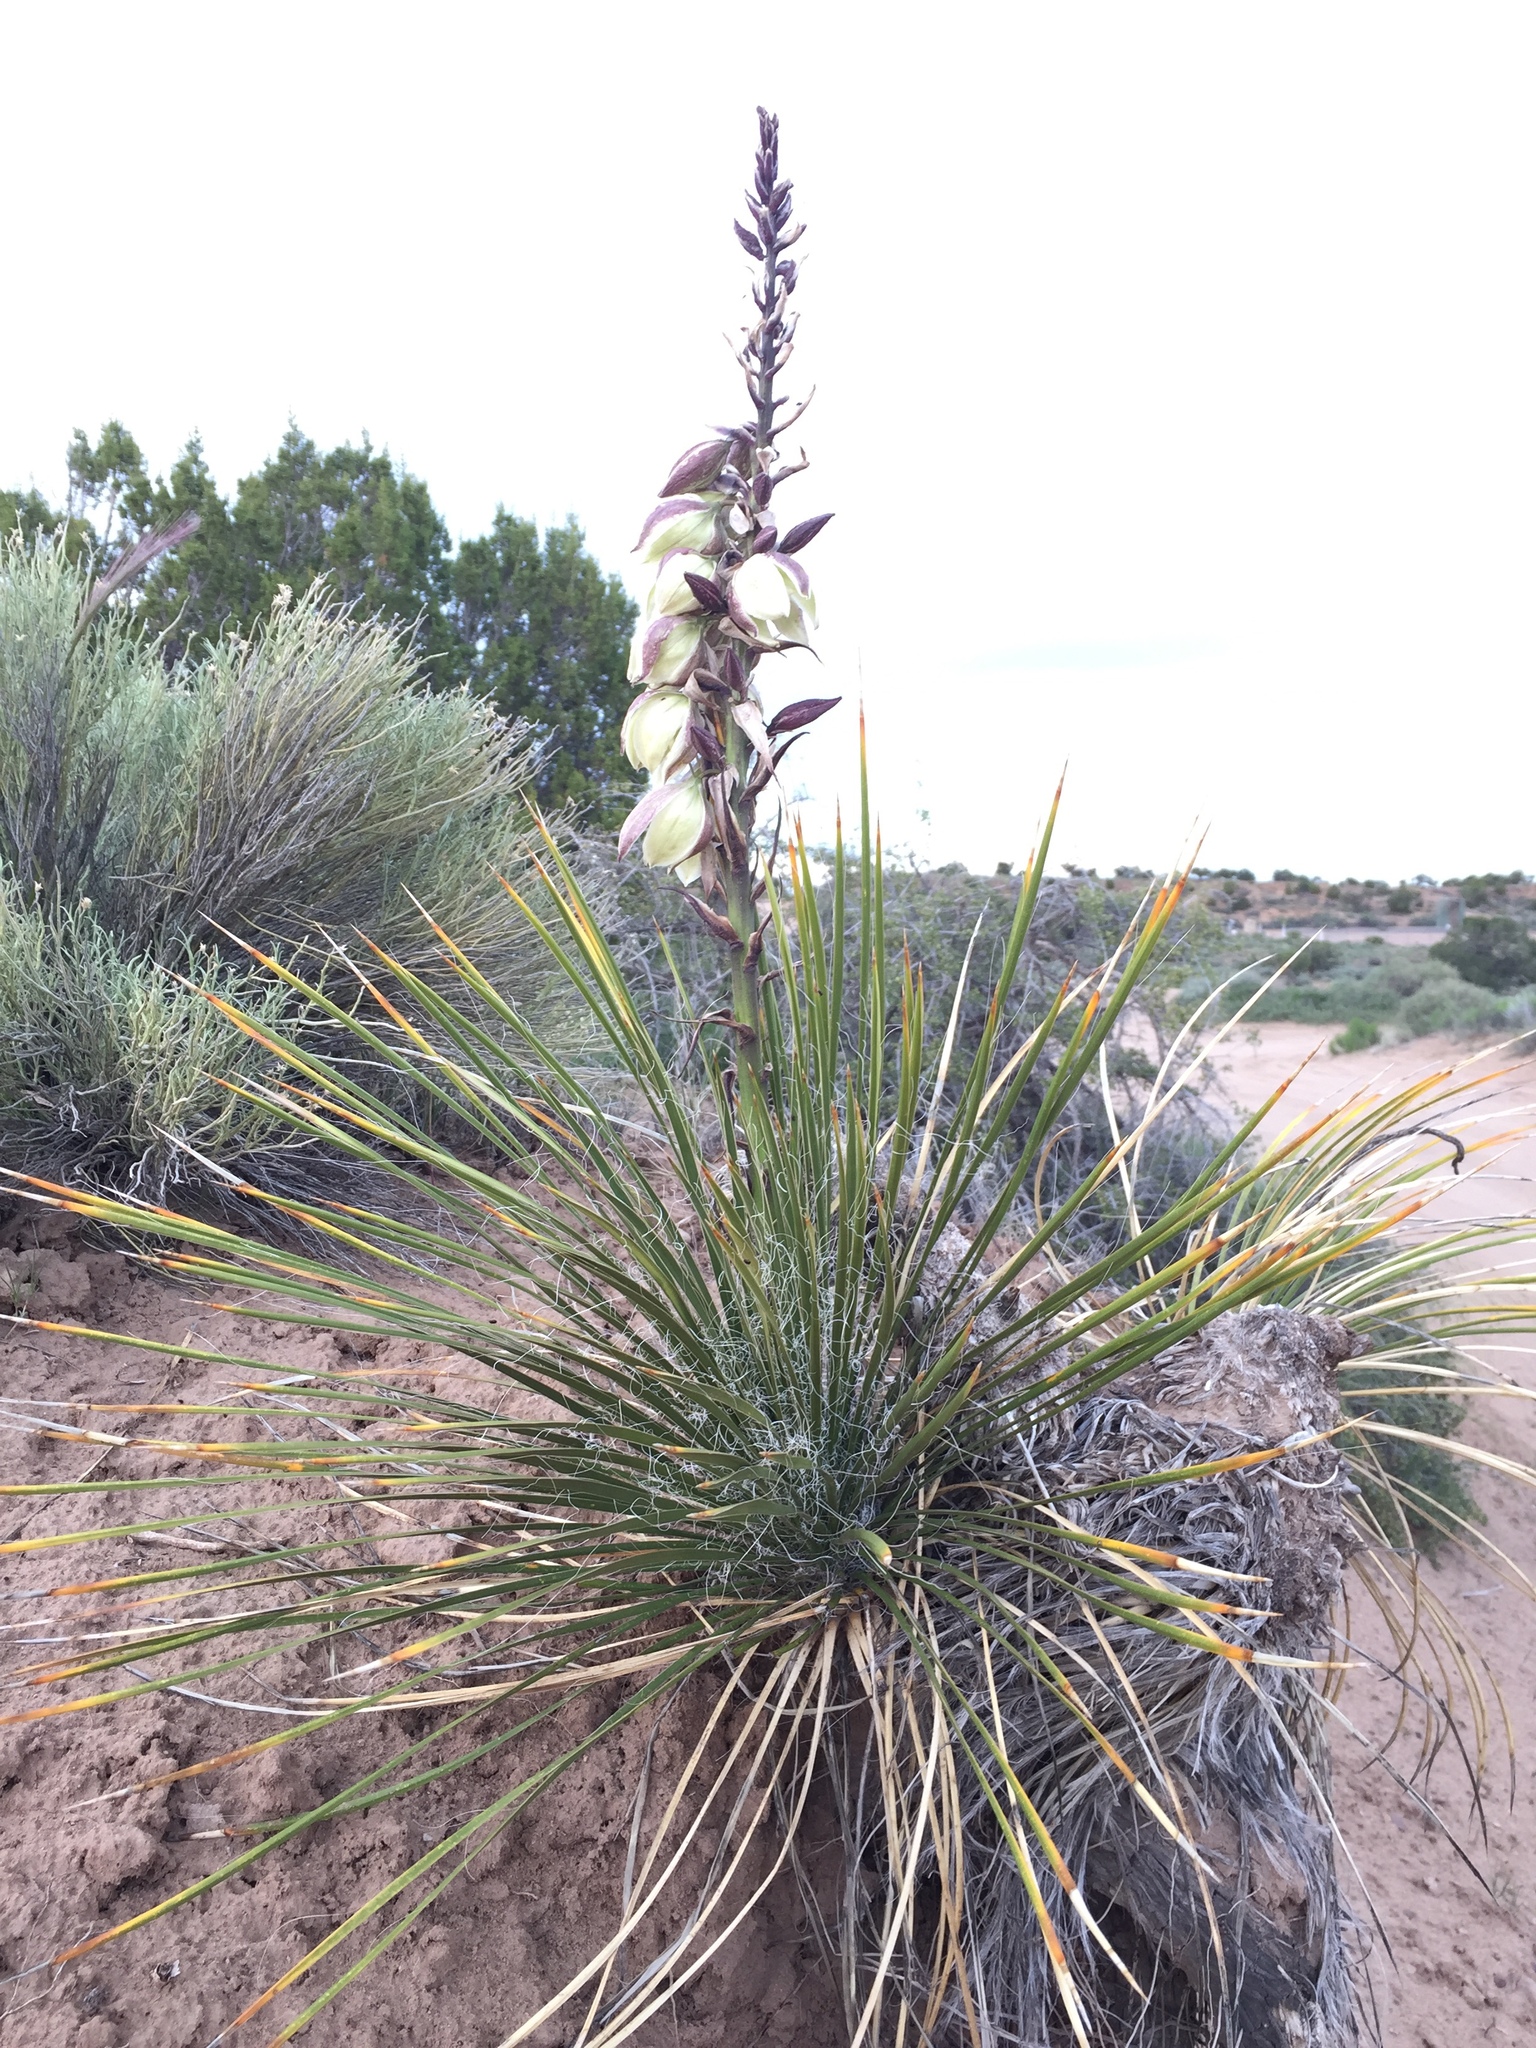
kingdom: Plantae
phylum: Tracheophyta
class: Liliopsida
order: Asparagales
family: Asparagaceae
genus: Yucca
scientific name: Yucca baileyi
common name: Alpine yucca
